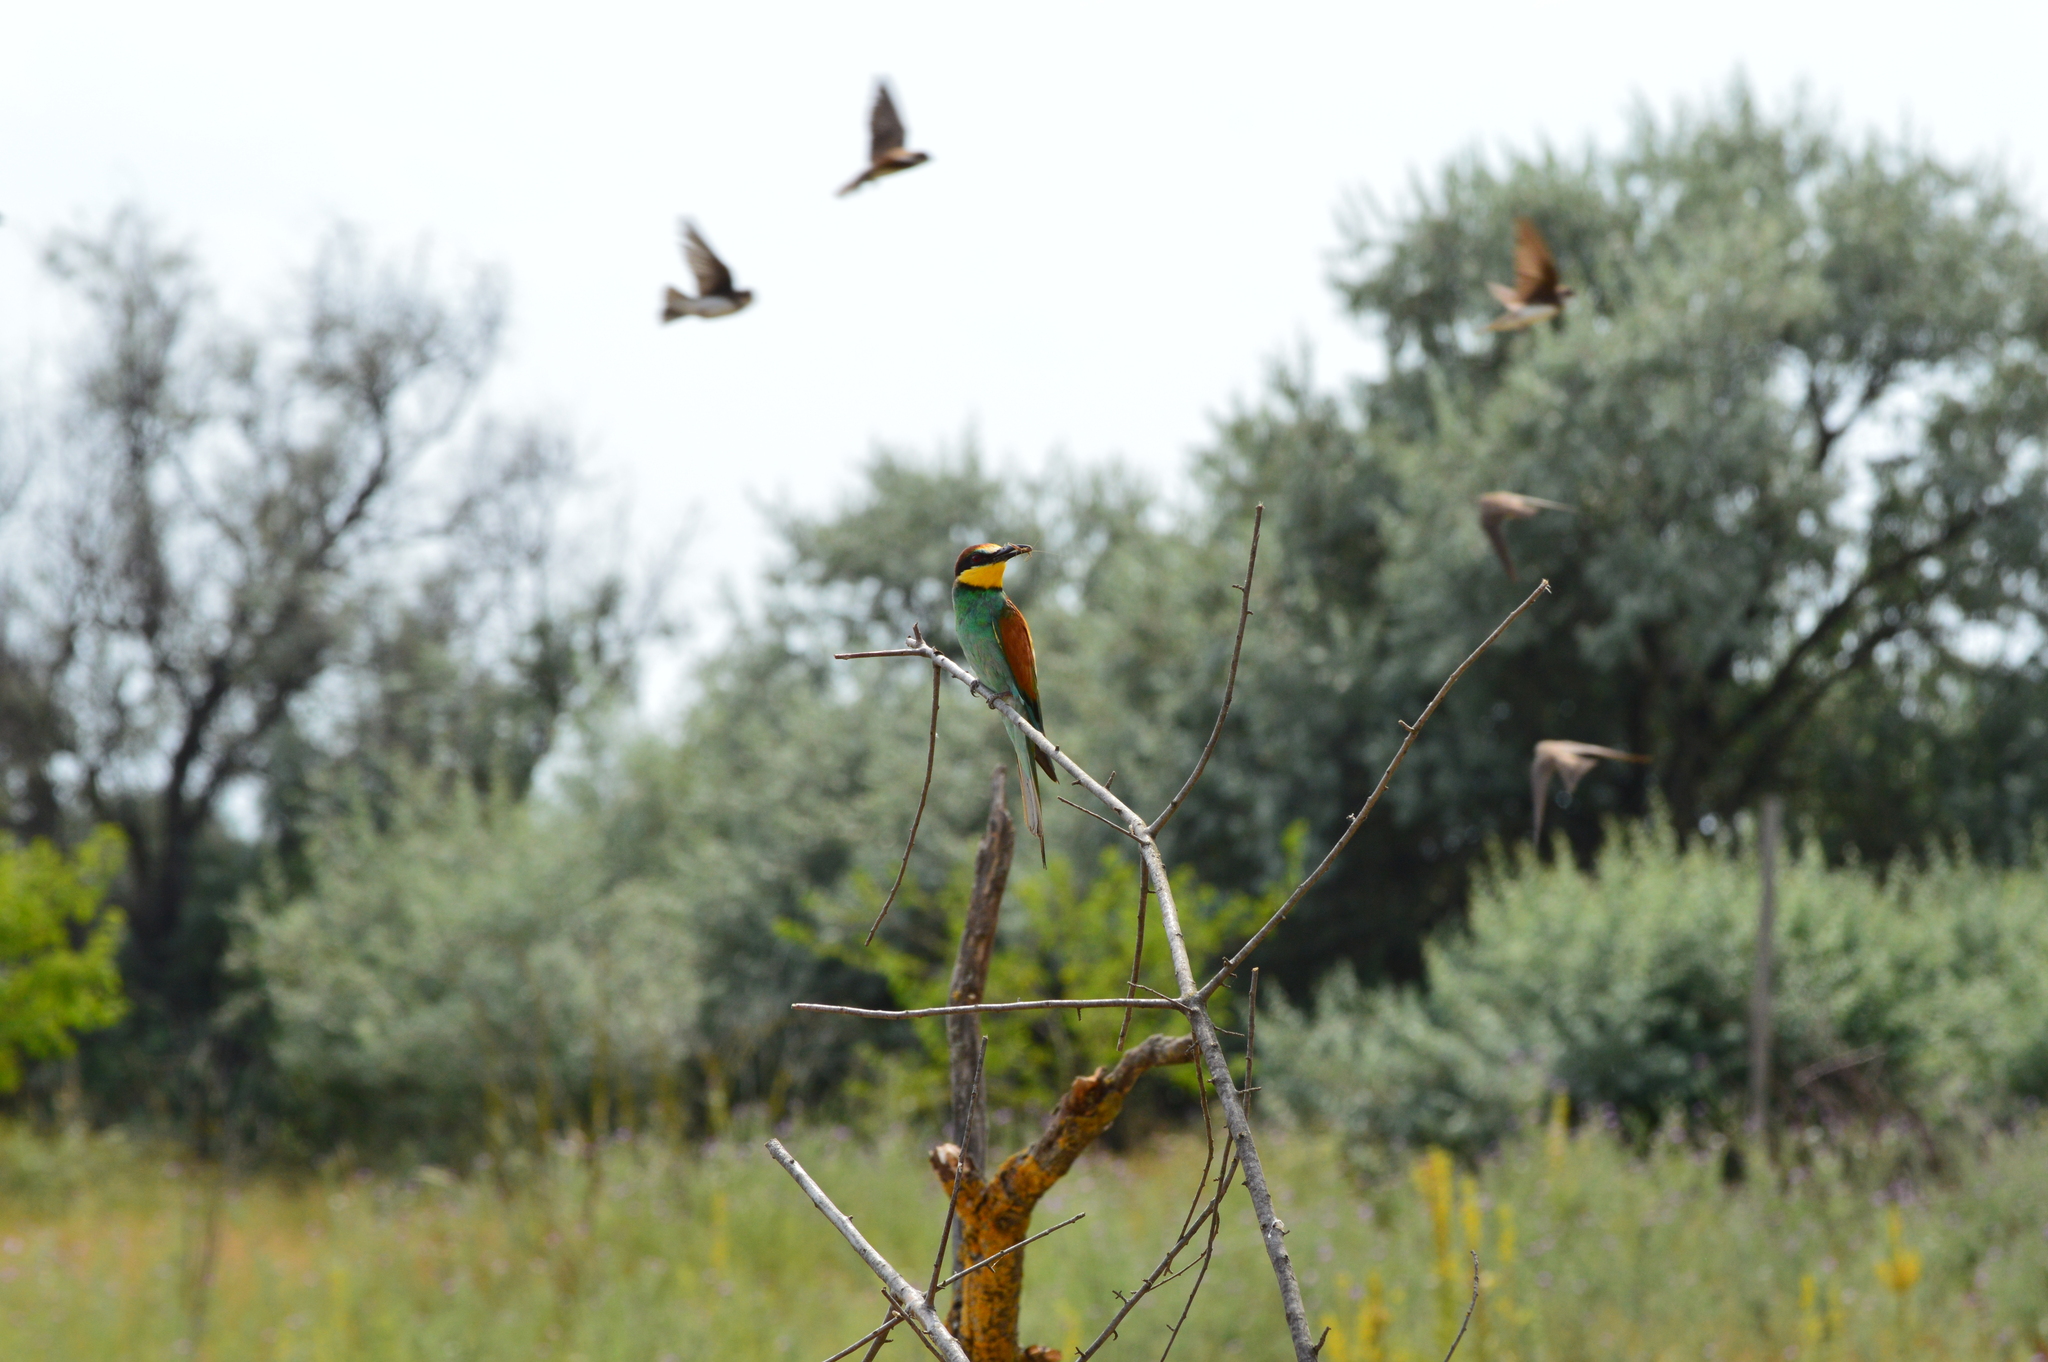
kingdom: Animalia
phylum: Chordata
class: Aves
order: Coraciiformes
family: Meropidae
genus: Merops
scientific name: Merops apiaster
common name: European bee-eater
